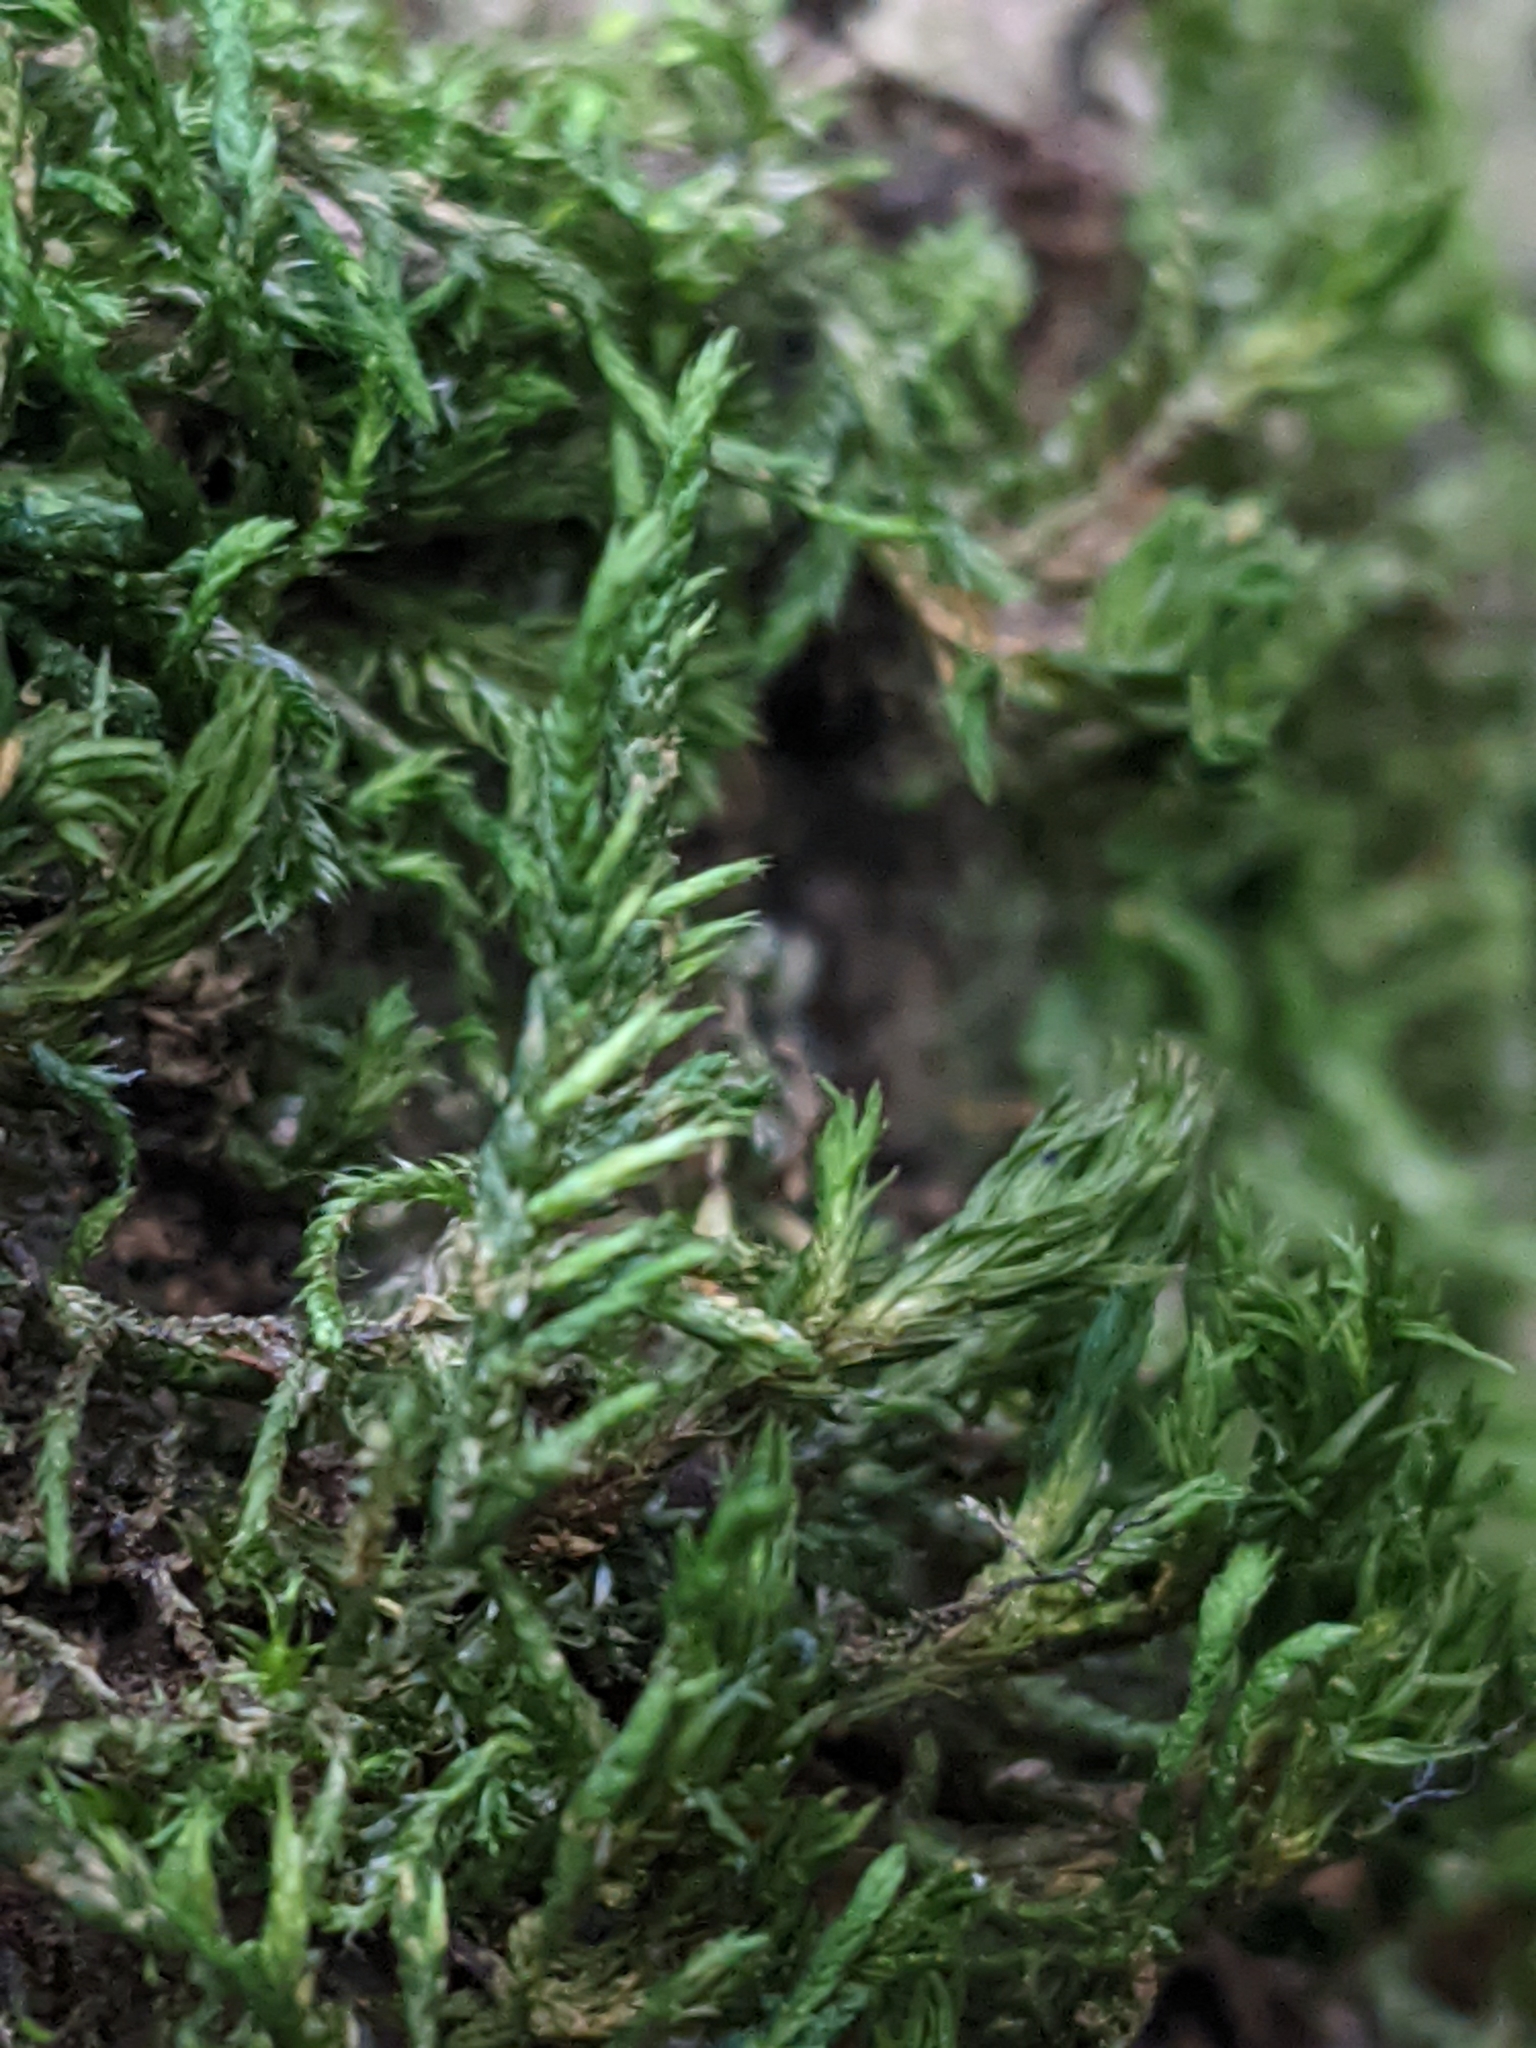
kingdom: Plantae
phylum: Bryophyta
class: Bryopsida
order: Hypnales
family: Cryphaeaceae
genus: Cryphaea
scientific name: Cryphaea heteromalla
